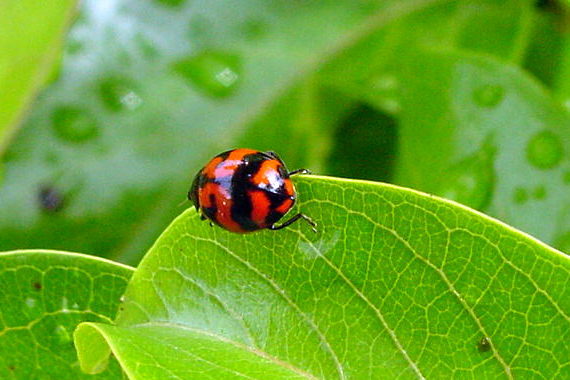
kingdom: Animalia
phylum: Arthropoda
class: Insecta
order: Coleoptera
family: Coccinellidae
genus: Coccinella
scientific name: Coccinella transversalis
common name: Transverse lady beetle
